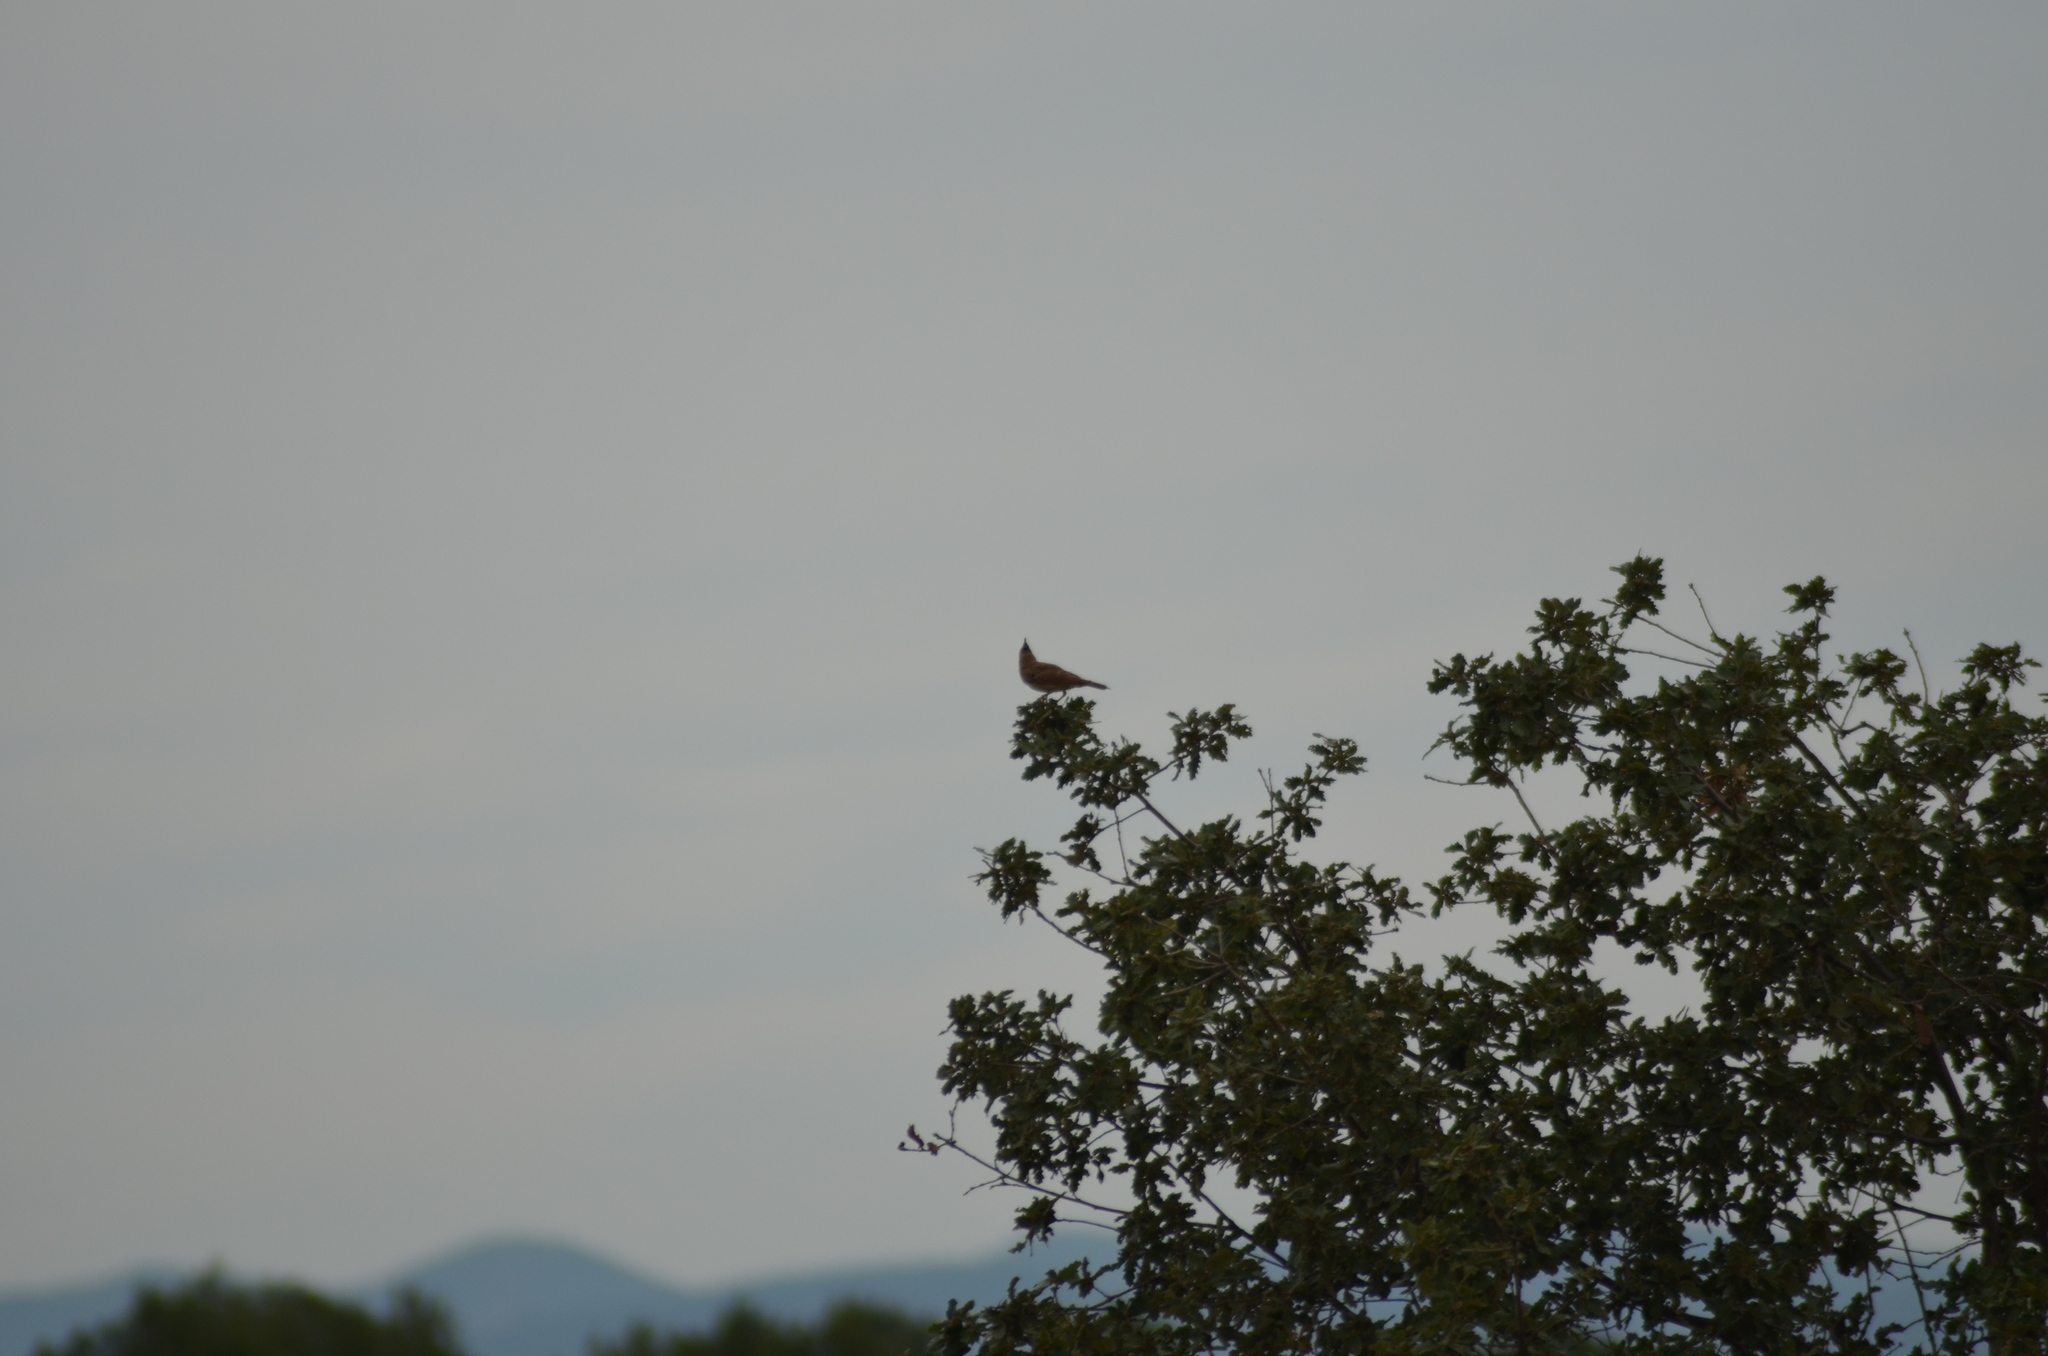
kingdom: Animalia
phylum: Chordata
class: Aves
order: Passeriformes
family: Alaudidae
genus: Galerida
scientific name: Galerida cristata
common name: Crested lark
